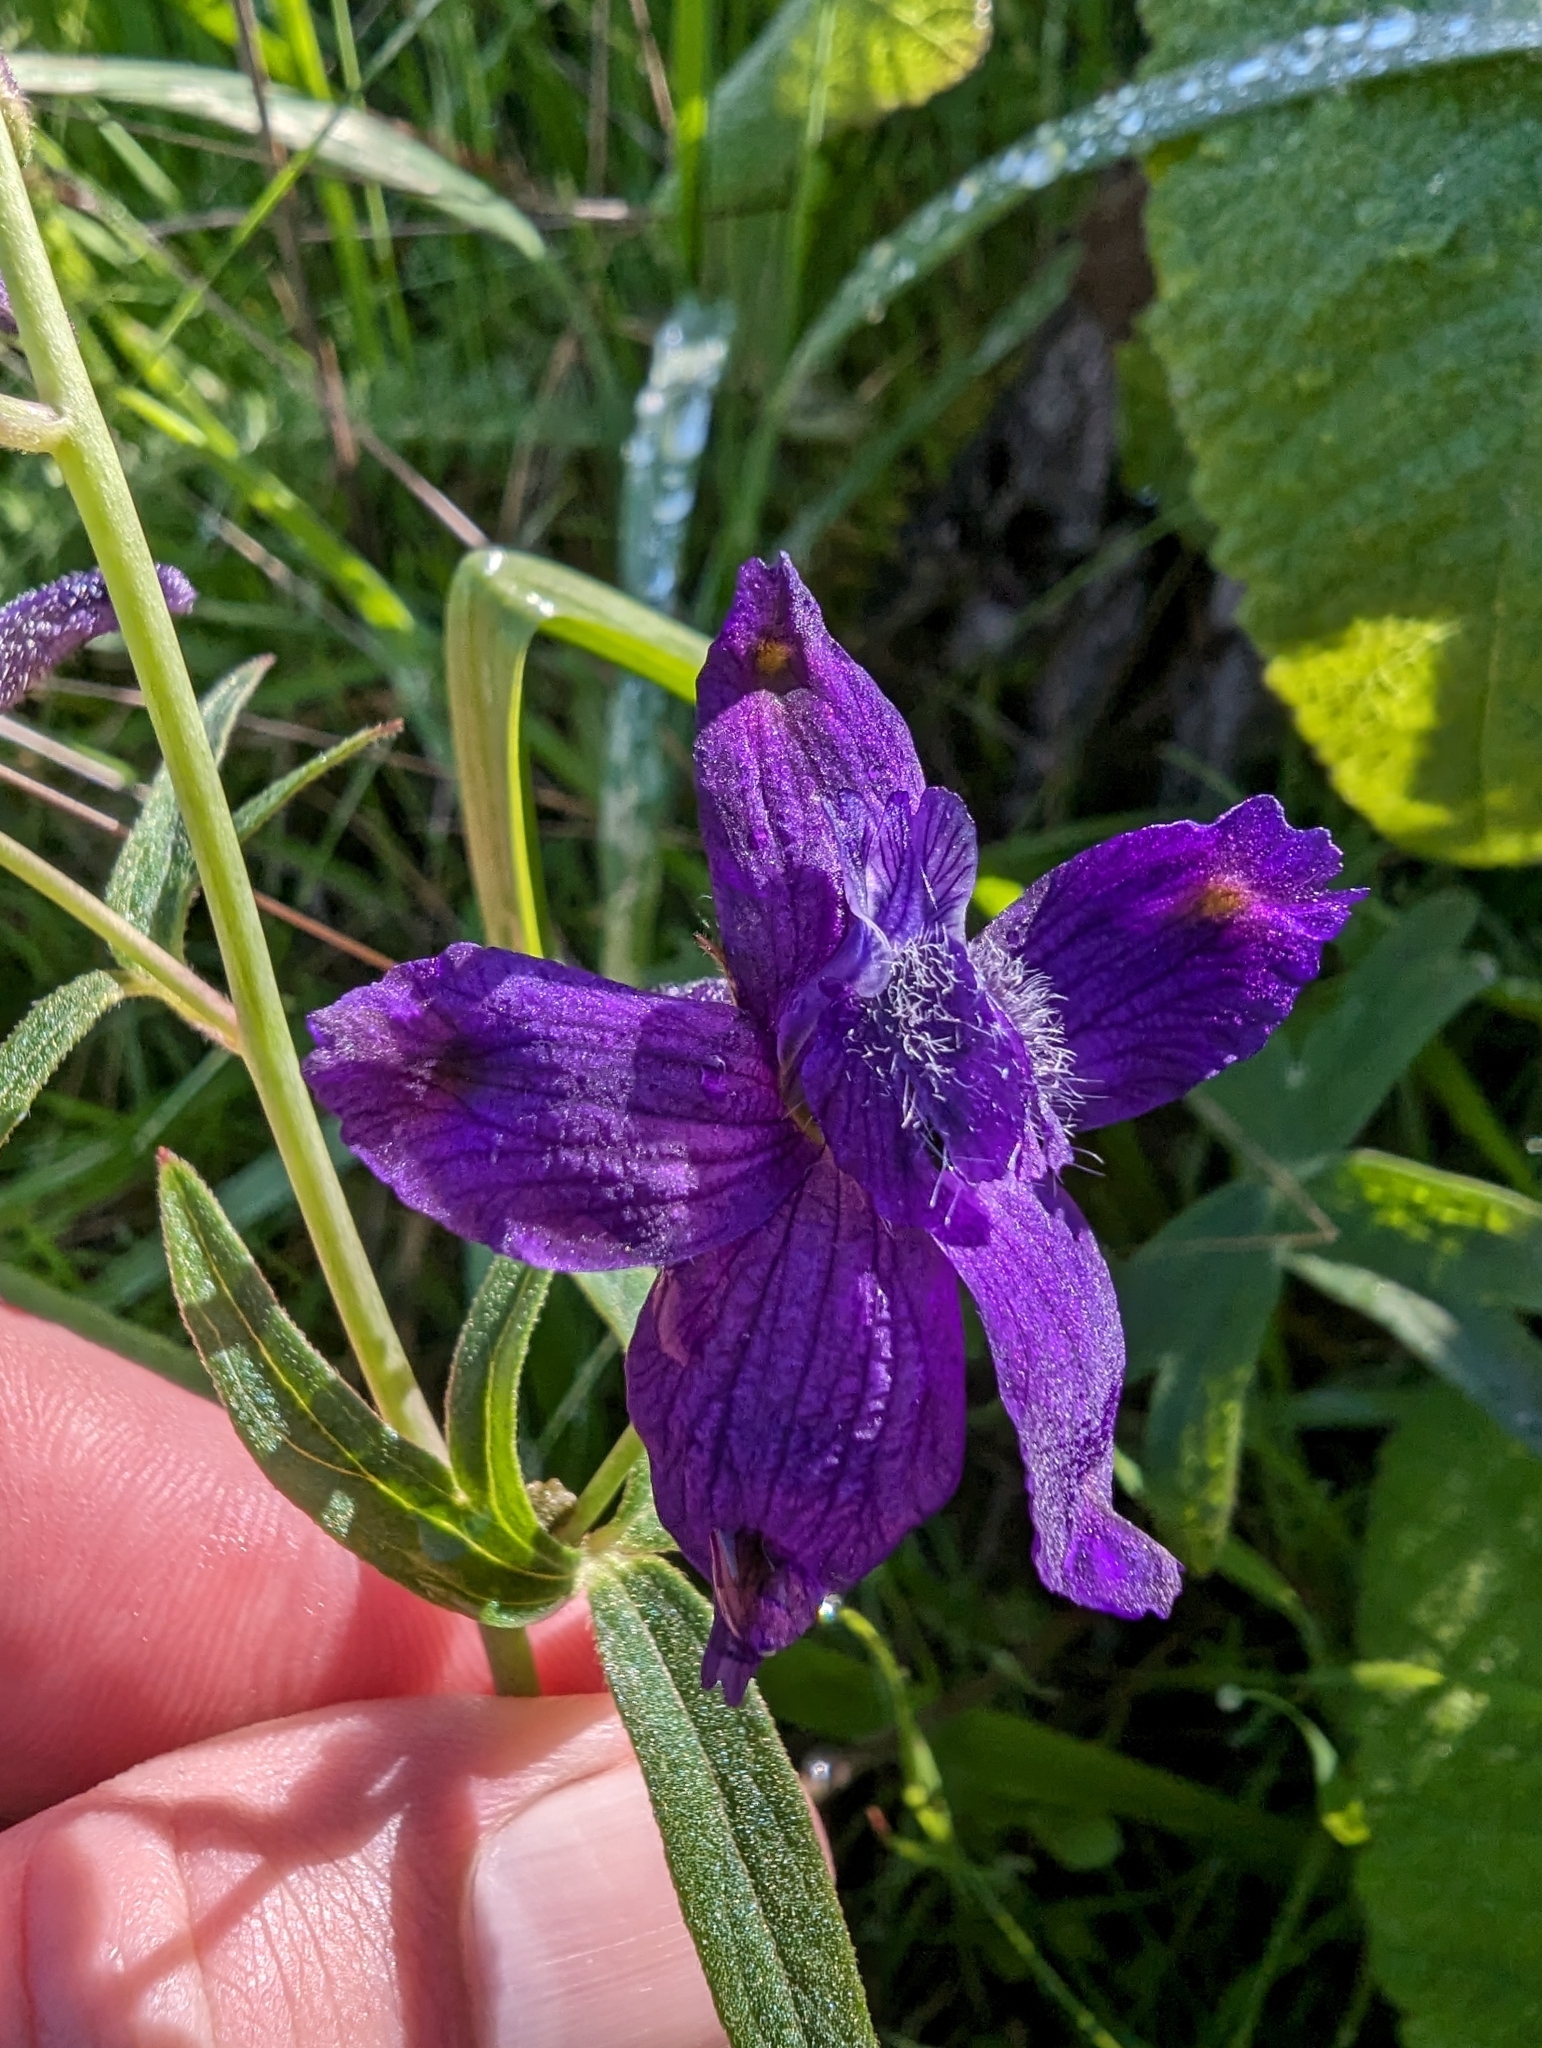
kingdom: Plantae
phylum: Tracheophyta
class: Magnoliopsida
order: Ranunculales
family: Ranunculaceae
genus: Delphinium
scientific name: Delphinium decorum
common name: Coast larkspur
